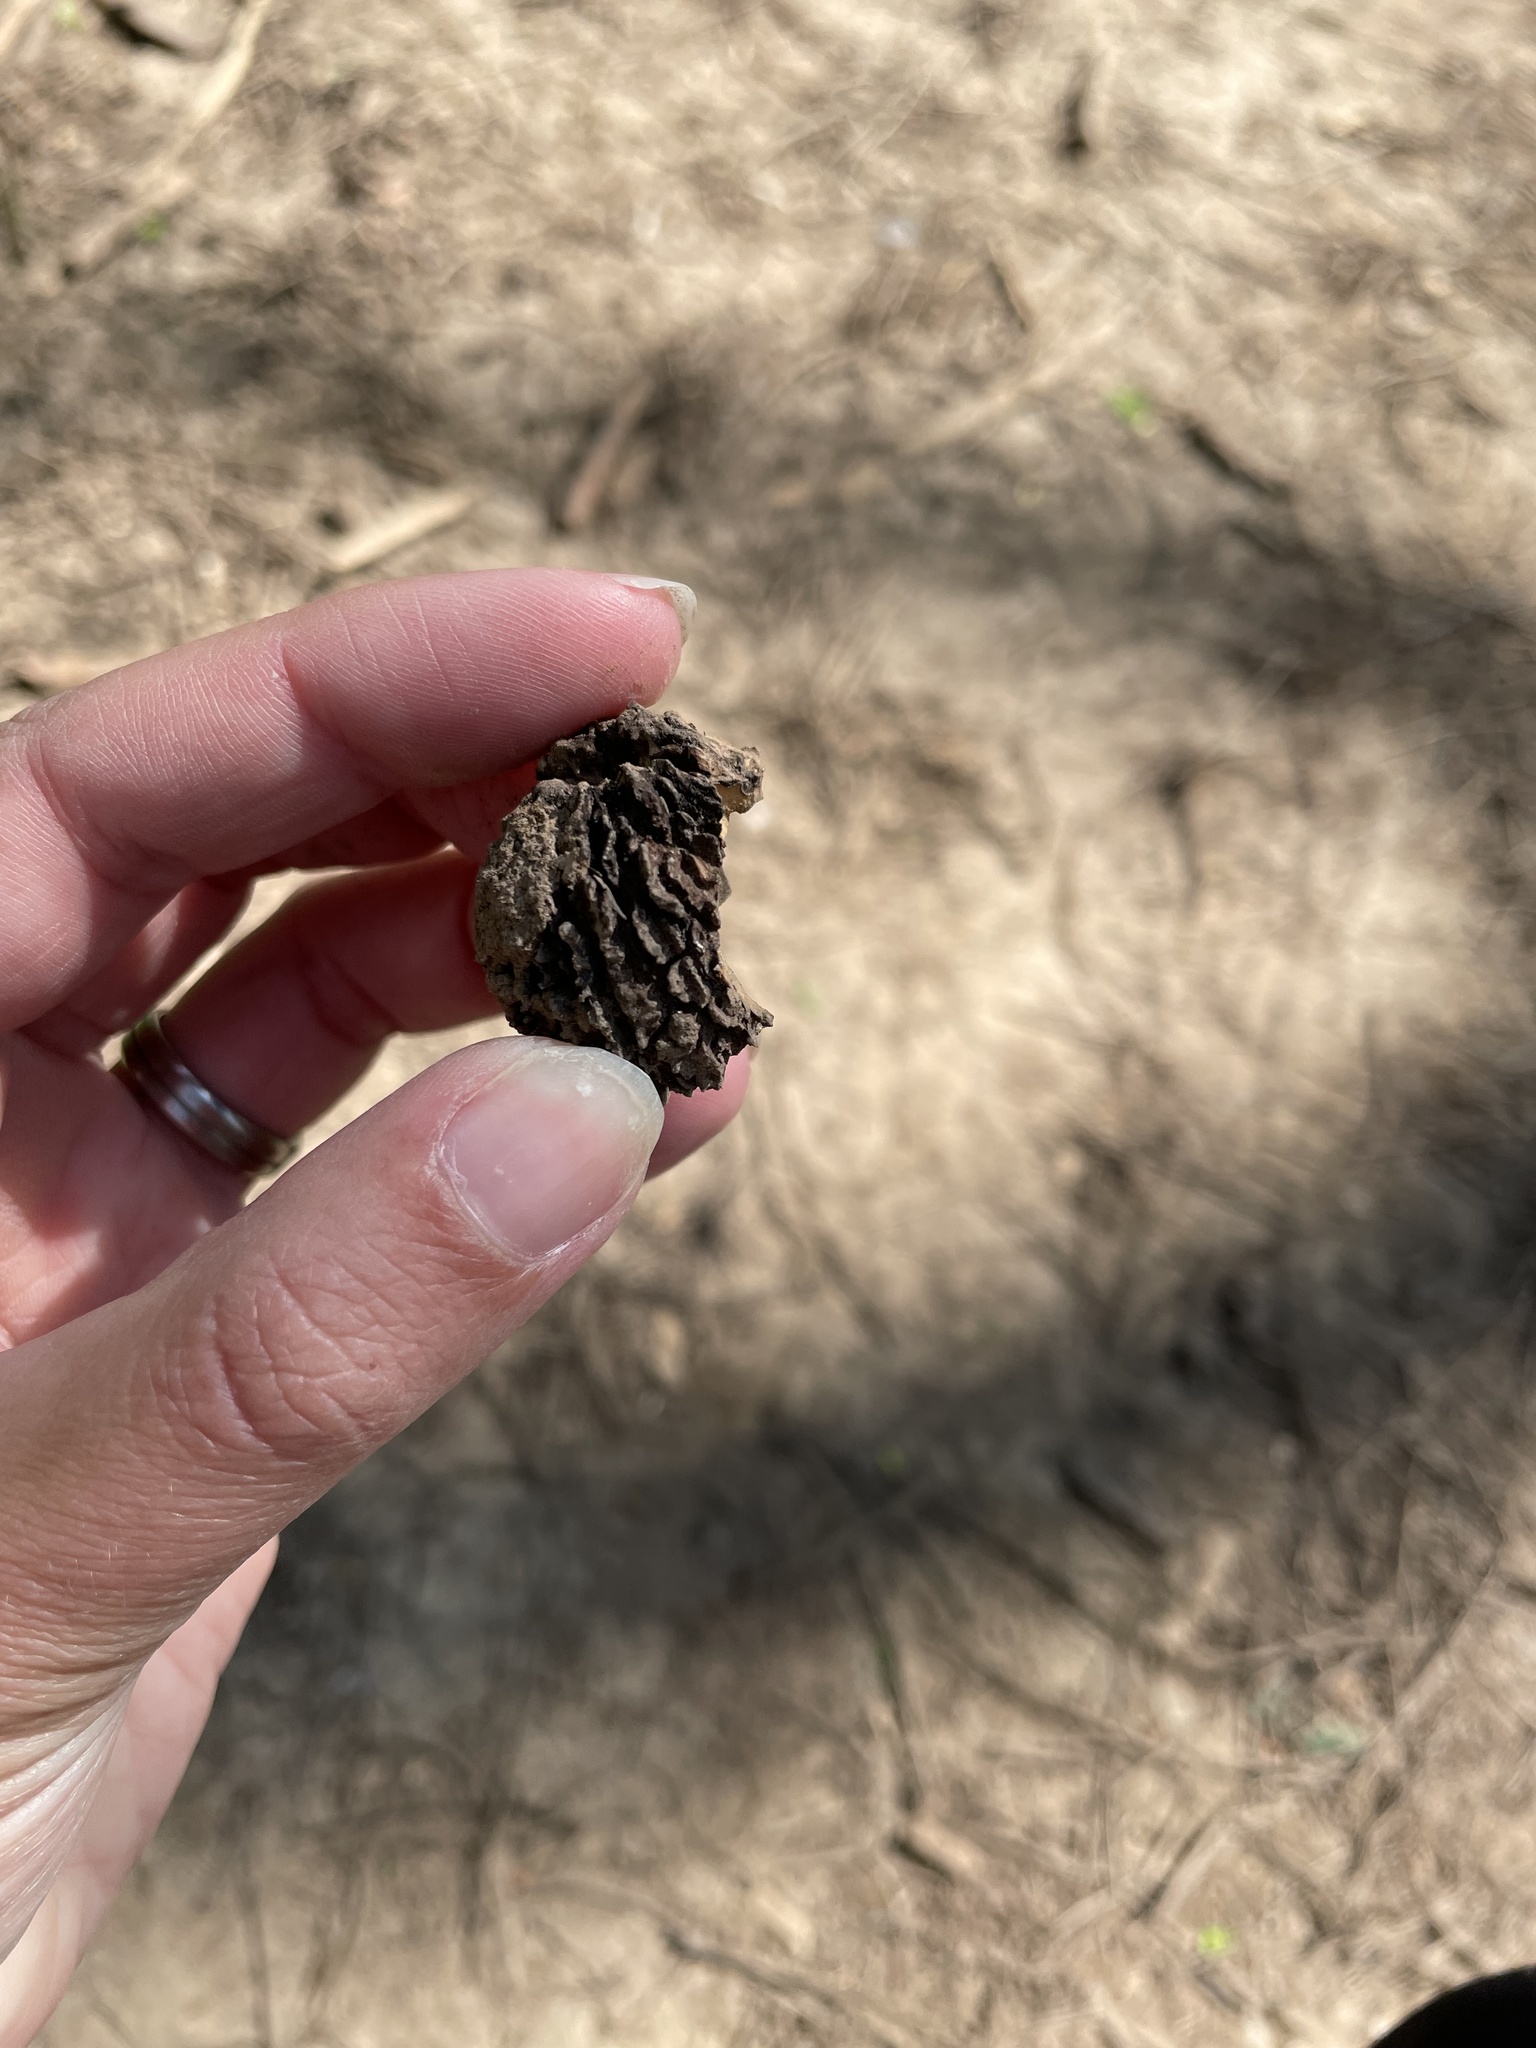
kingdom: Plantae
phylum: Tracheophyta
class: Magnoliopsida
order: Fagales
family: Juglandaceae
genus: Juglans
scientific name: Juglans nigra
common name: Black walnut
